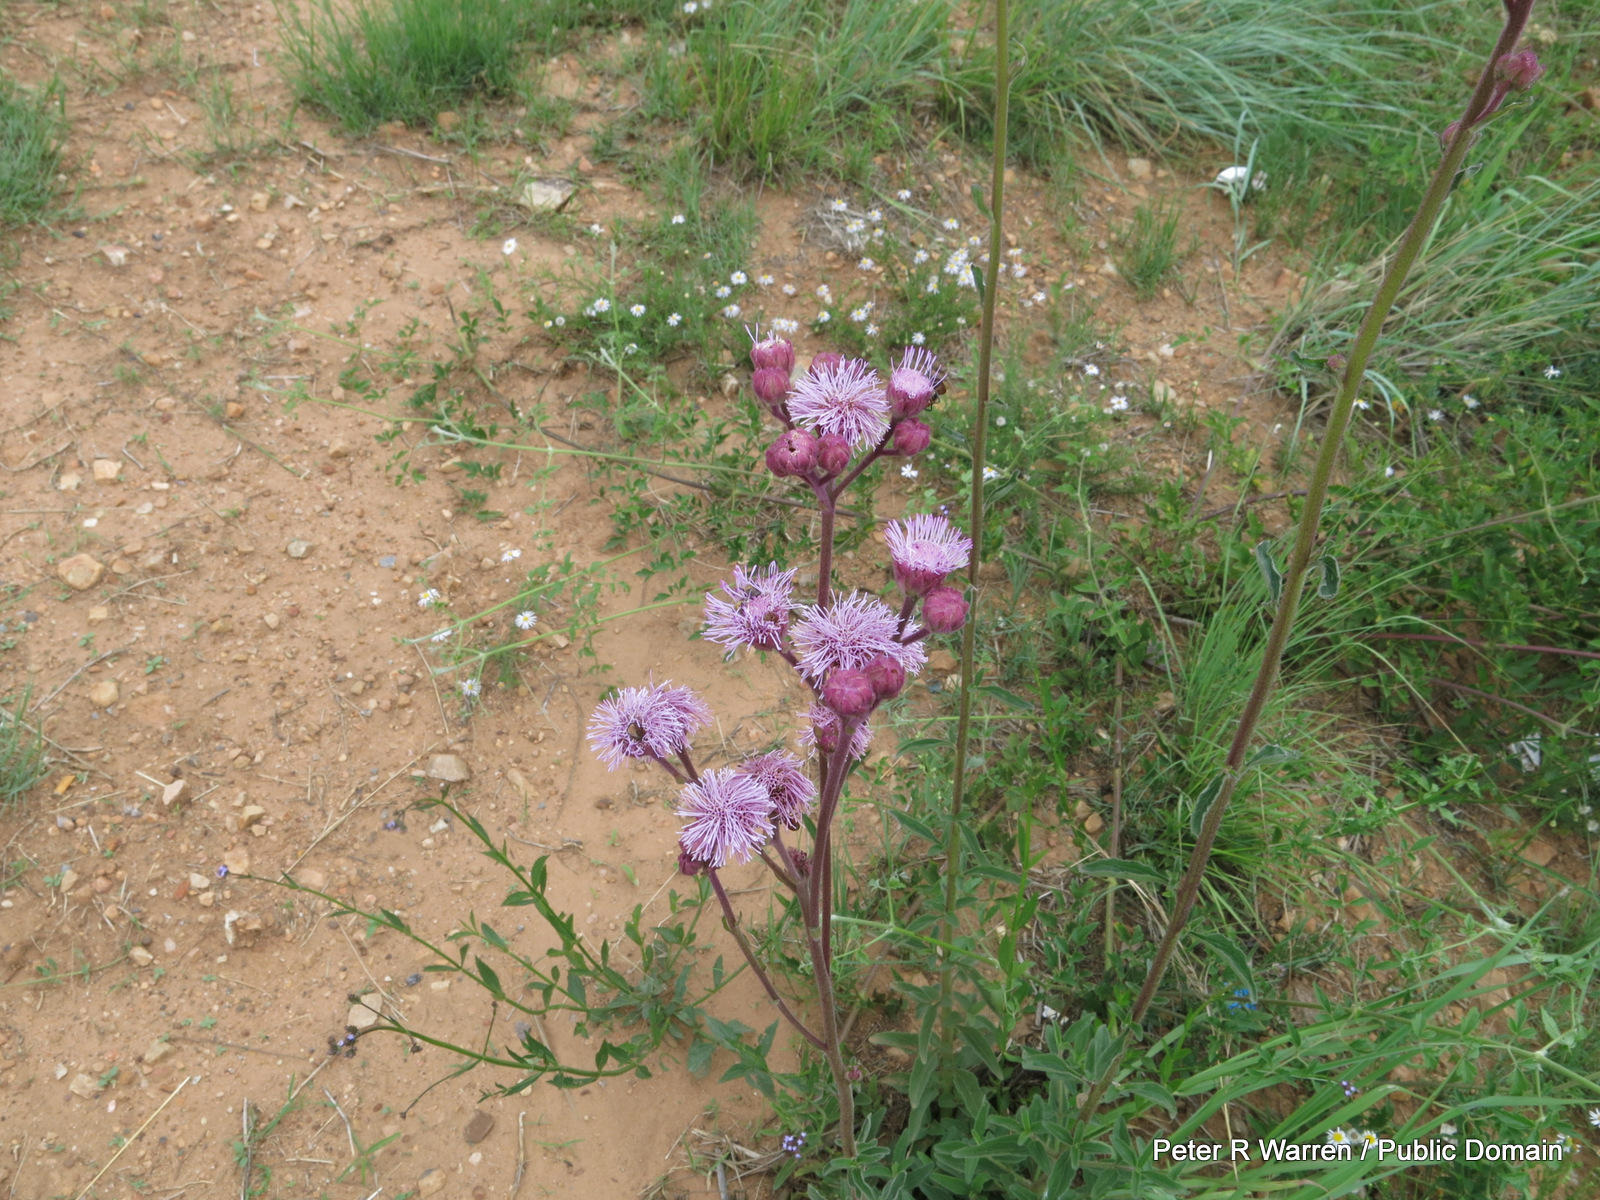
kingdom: Plantae
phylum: Tracheophyta
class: Magnoliopsida
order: Asterales
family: Asteraceae
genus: Campuloclinium
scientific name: Campuloclinium macrocephalum
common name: Pompomweed
